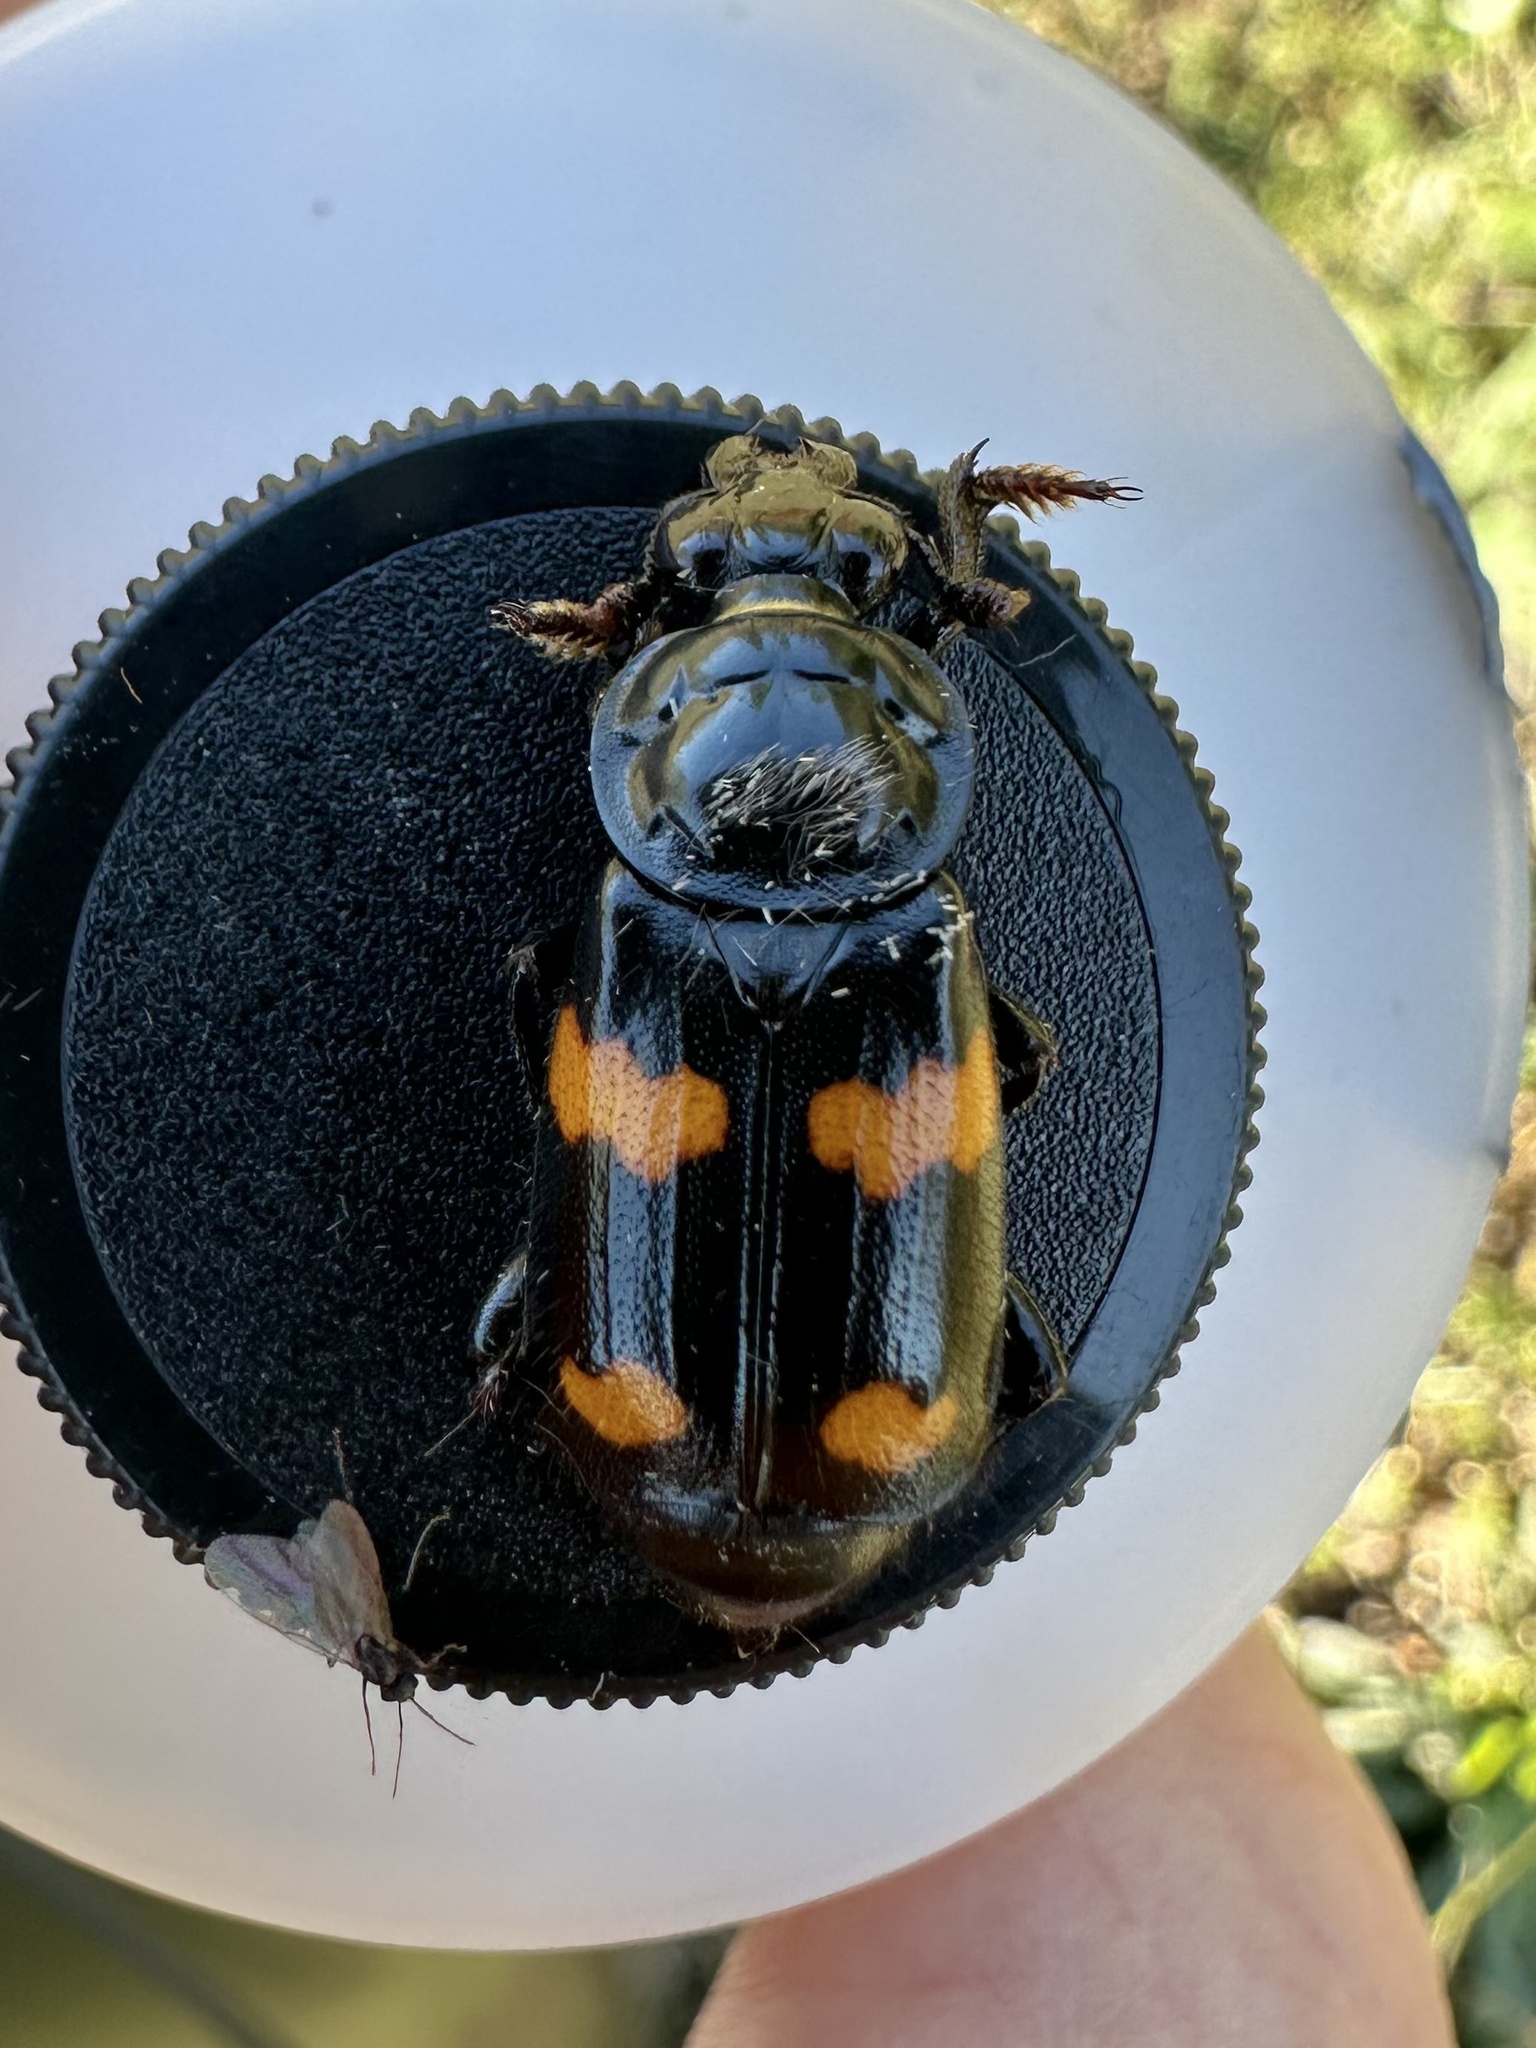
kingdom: Animalia
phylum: Arthropoda
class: Insecta
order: Coleoptera
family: Staphylinidae
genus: Nicrophorus
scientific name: Nicrophorus orbicollis
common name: Roundneck sexton beetle
